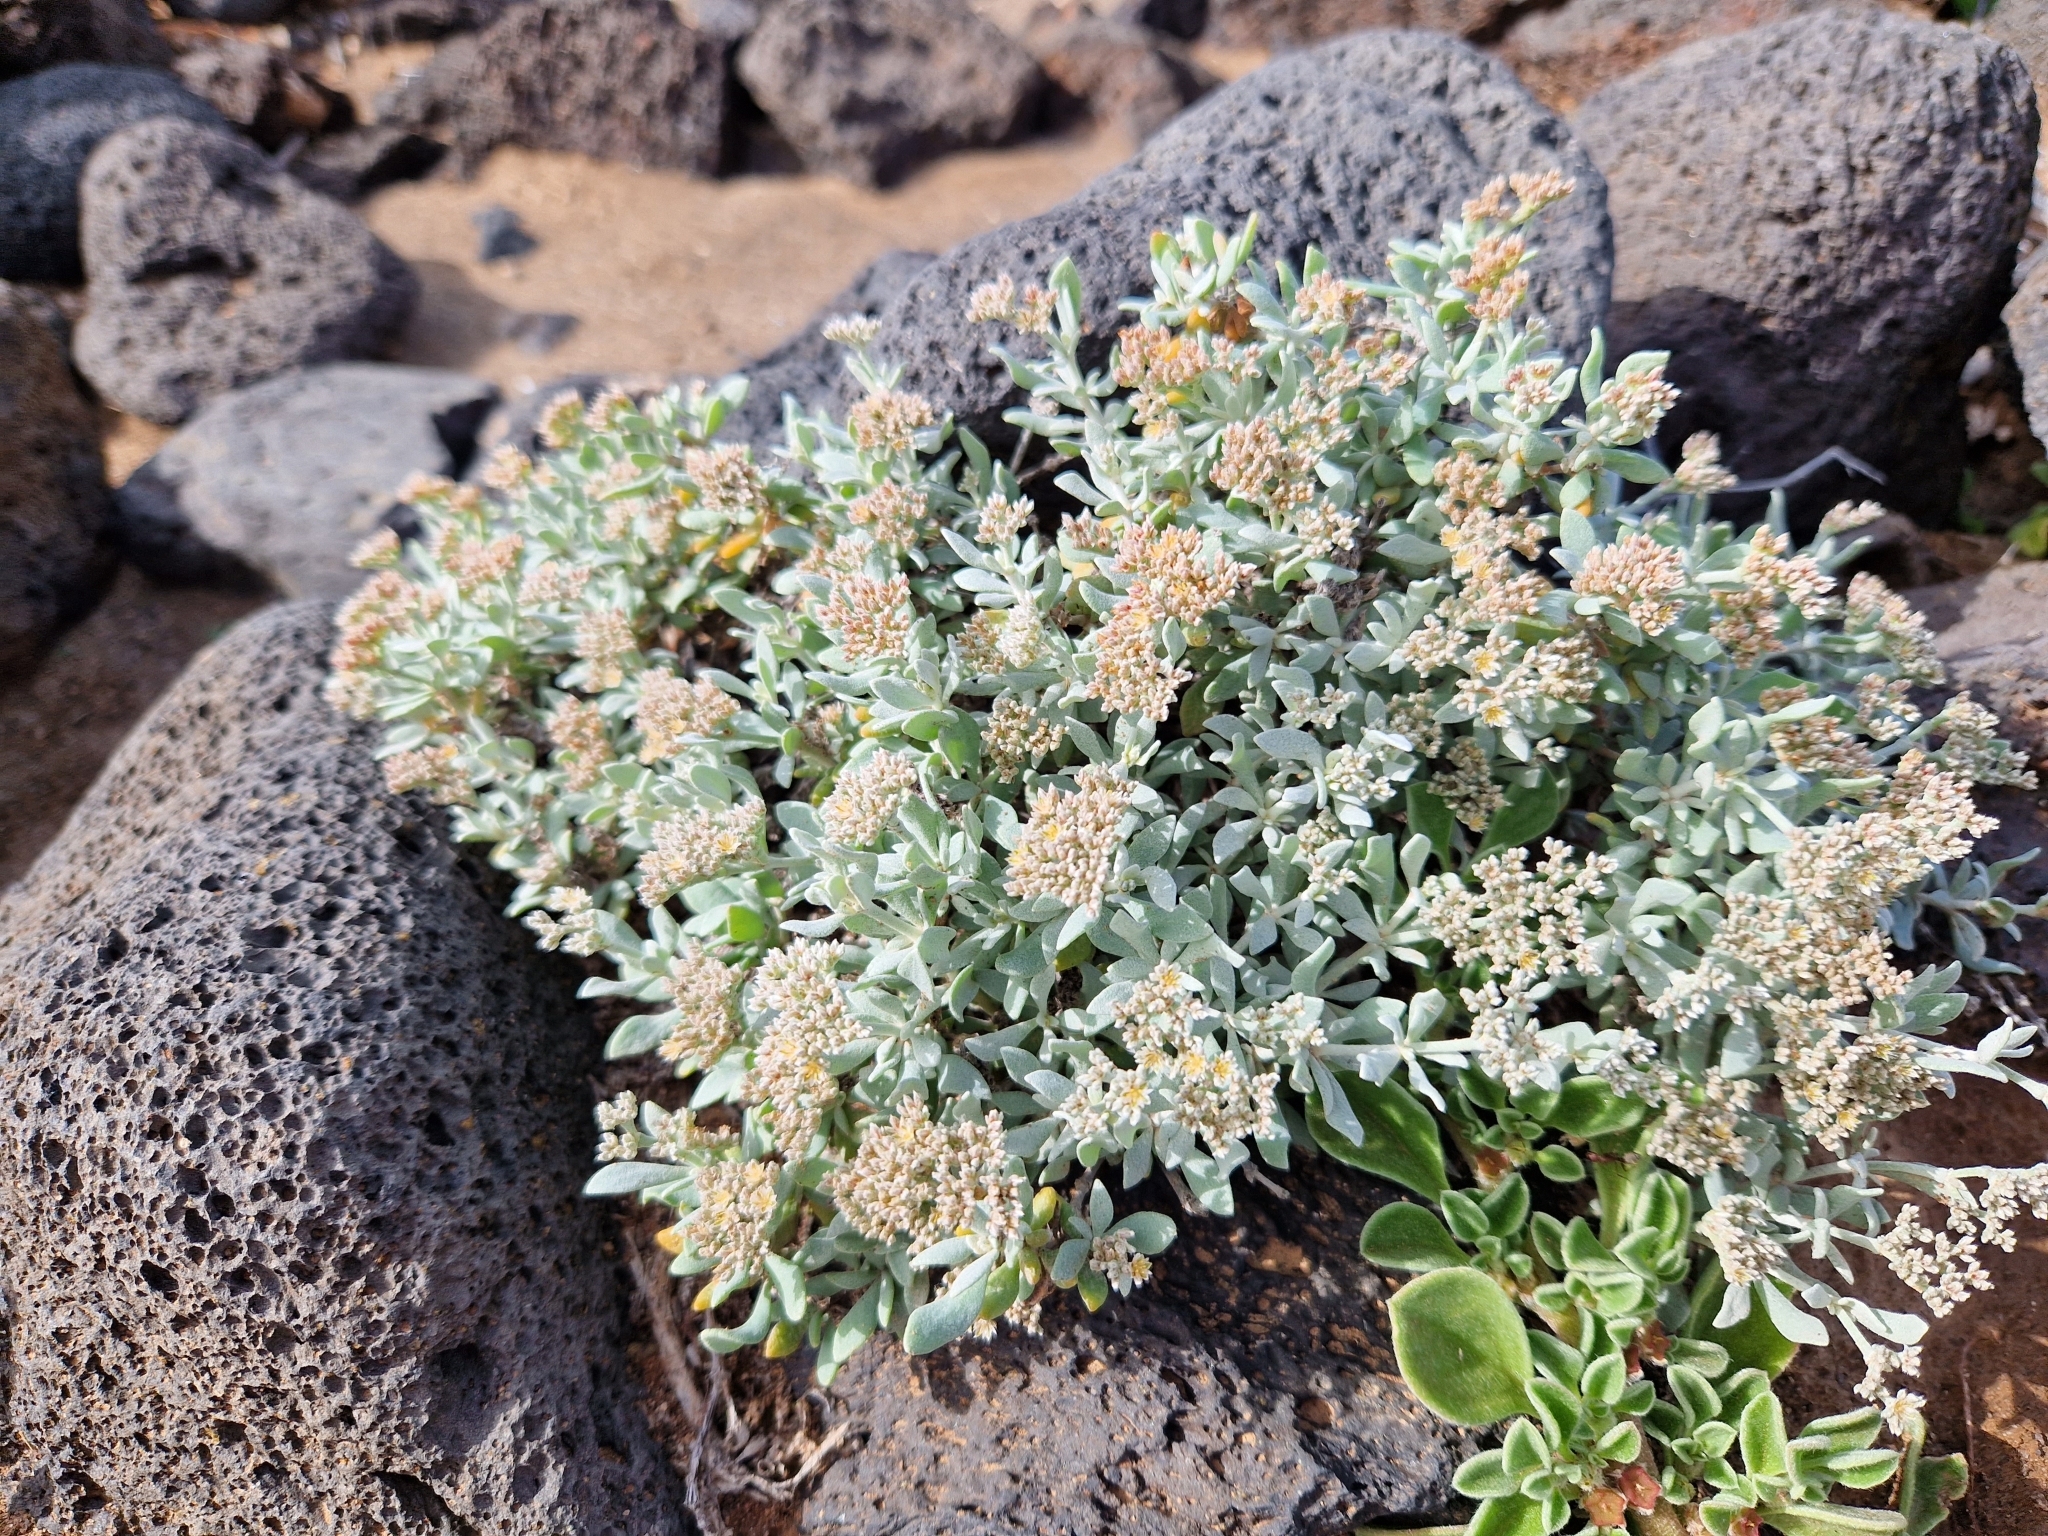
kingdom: Plantae
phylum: Tracheophyta
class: Magnoliopsida
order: Caryophyllales
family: Caryophyllaceae
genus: Polycarpaea
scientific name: Polycarpaea nivea
